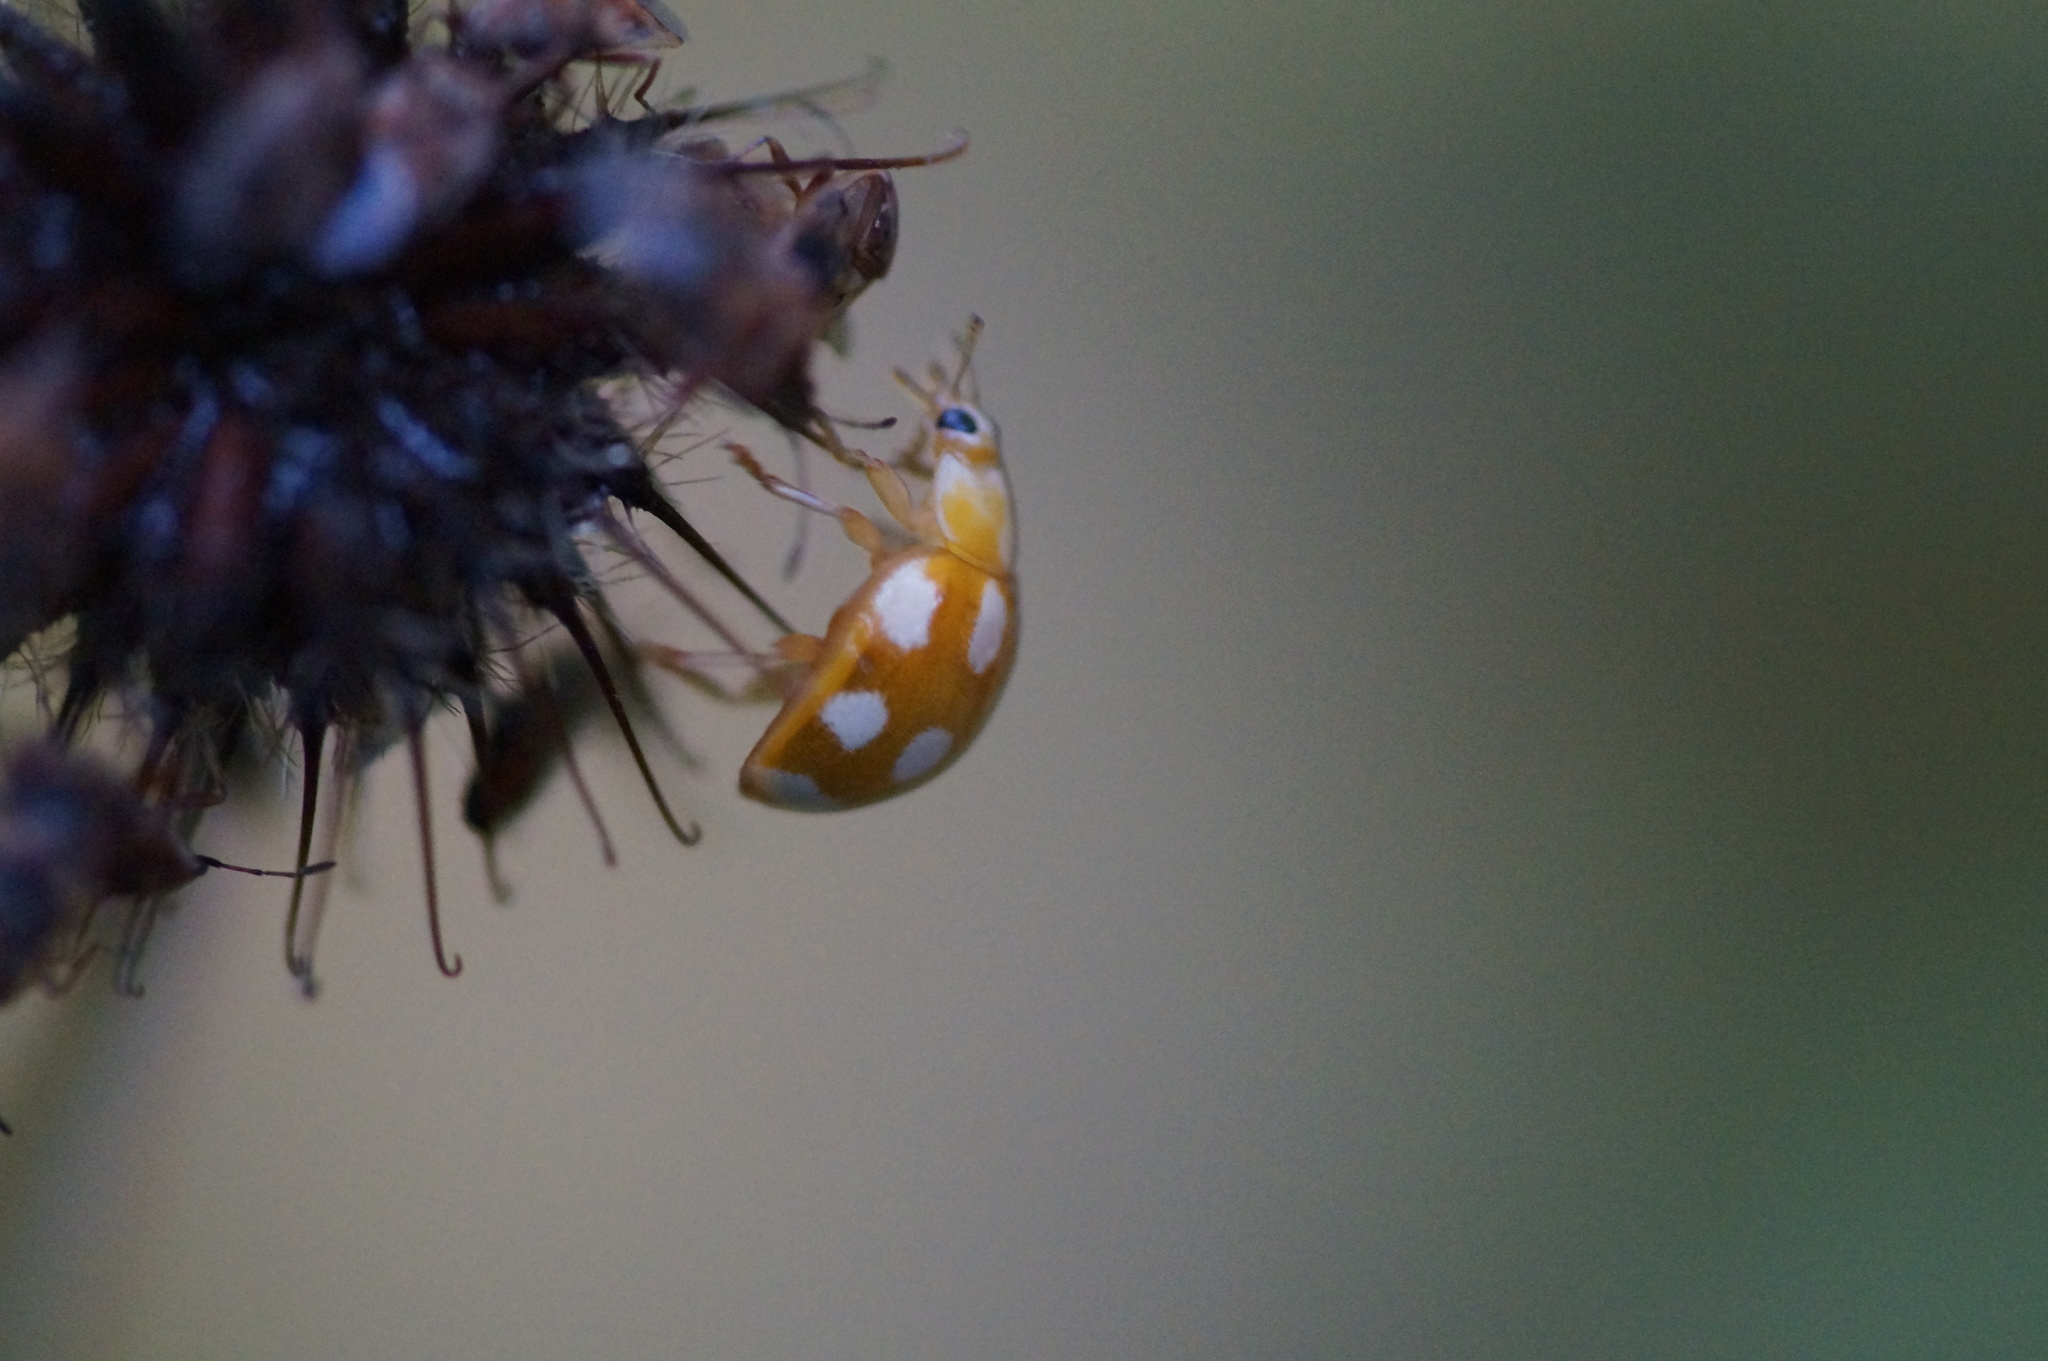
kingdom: Animalia
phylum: Arthropoda
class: Insecta
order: Coleoptera
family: Coccinellidae
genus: Calvia
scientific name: Calvia decemguttata
